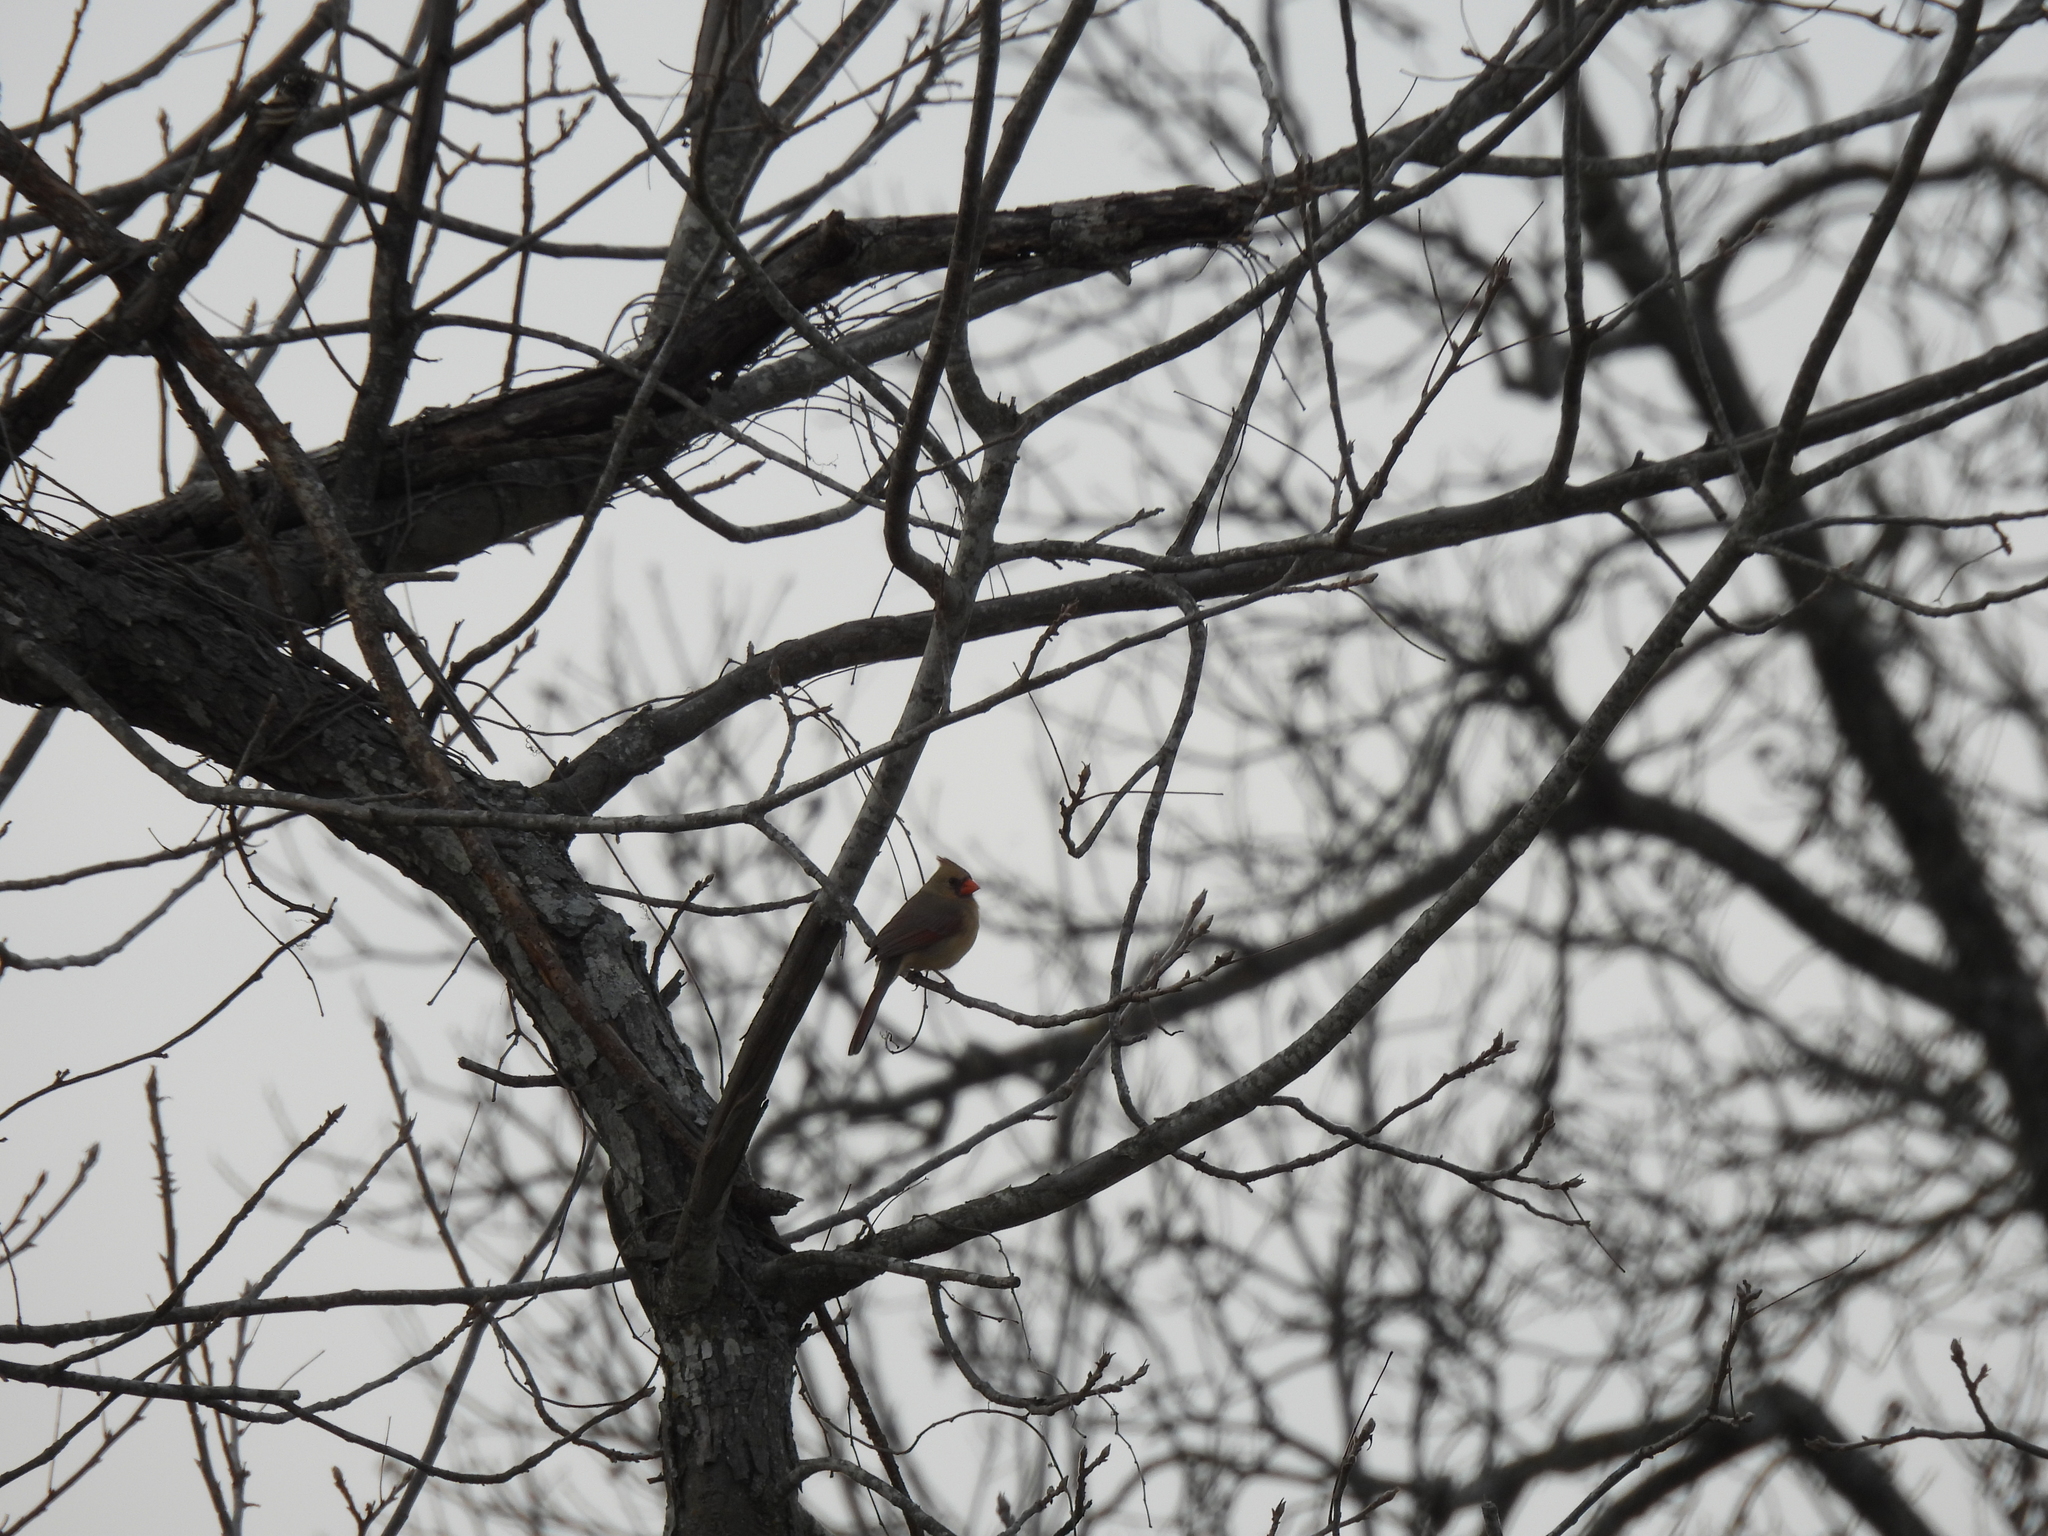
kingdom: Animalia
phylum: Chordata
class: Aves
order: Passeriformes
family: Cardinalidae
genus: Cardinalis
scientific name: Cardinalis cardinalis
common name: Northern cardinal
